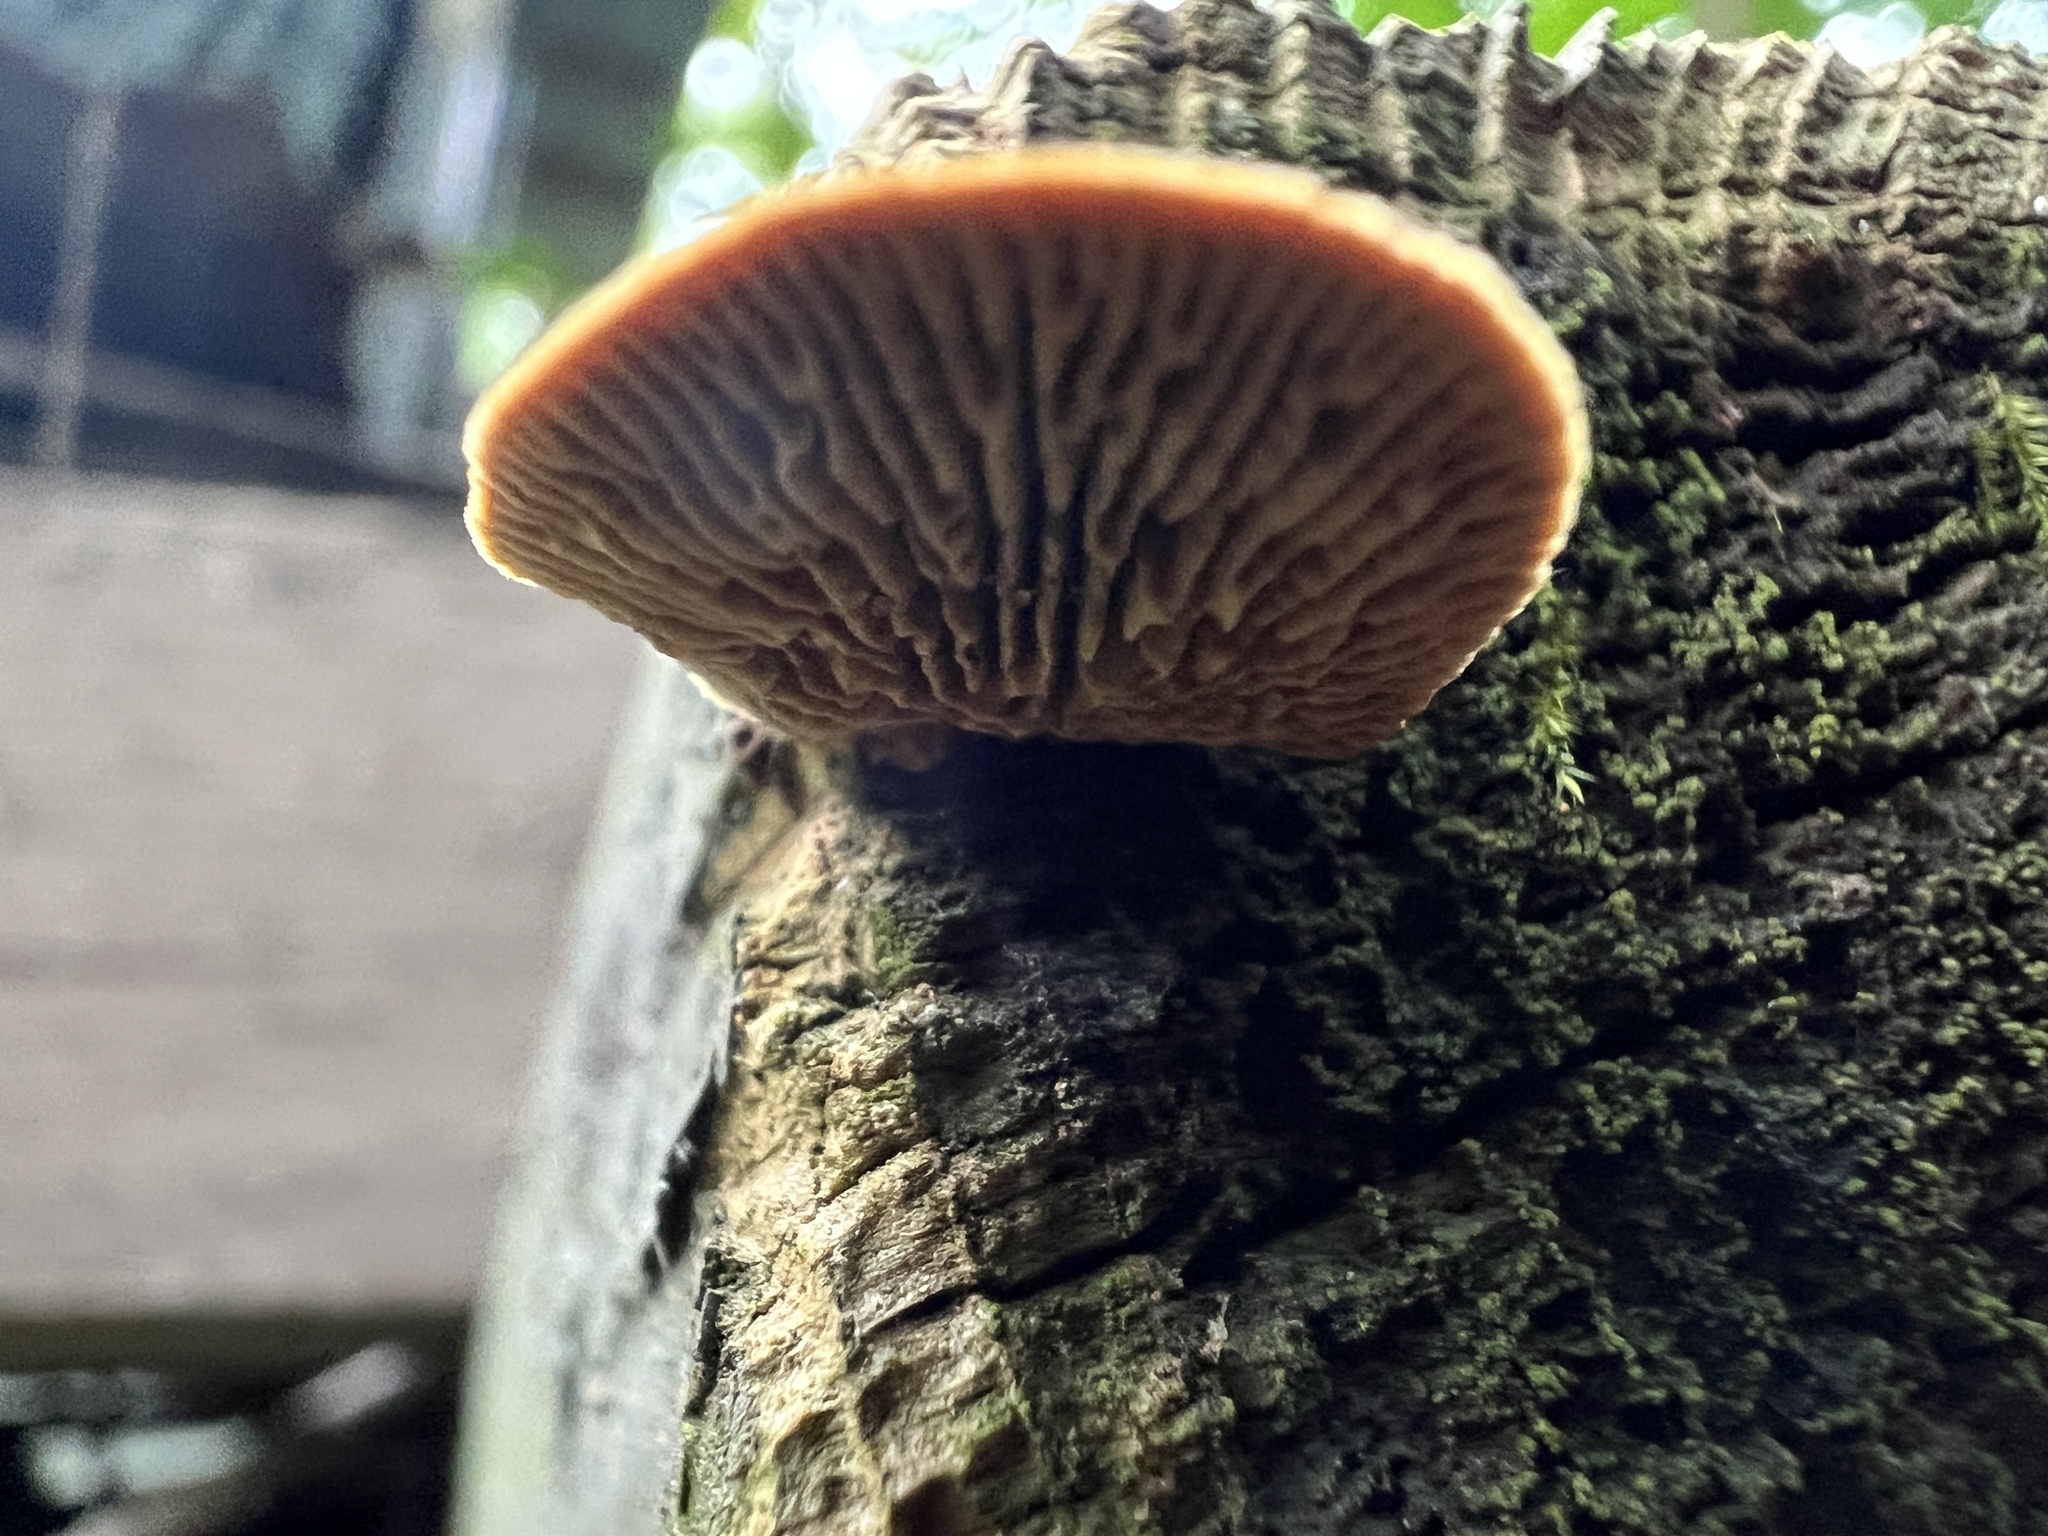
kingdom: Fungi
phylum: Basidiomycota
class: Agaricomycetes
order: Gloeophyllales
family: Gloeophyllaceae
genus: Gloeophyllum
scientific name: Gloeophyllum sepiarium
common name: Conifer mazegill
